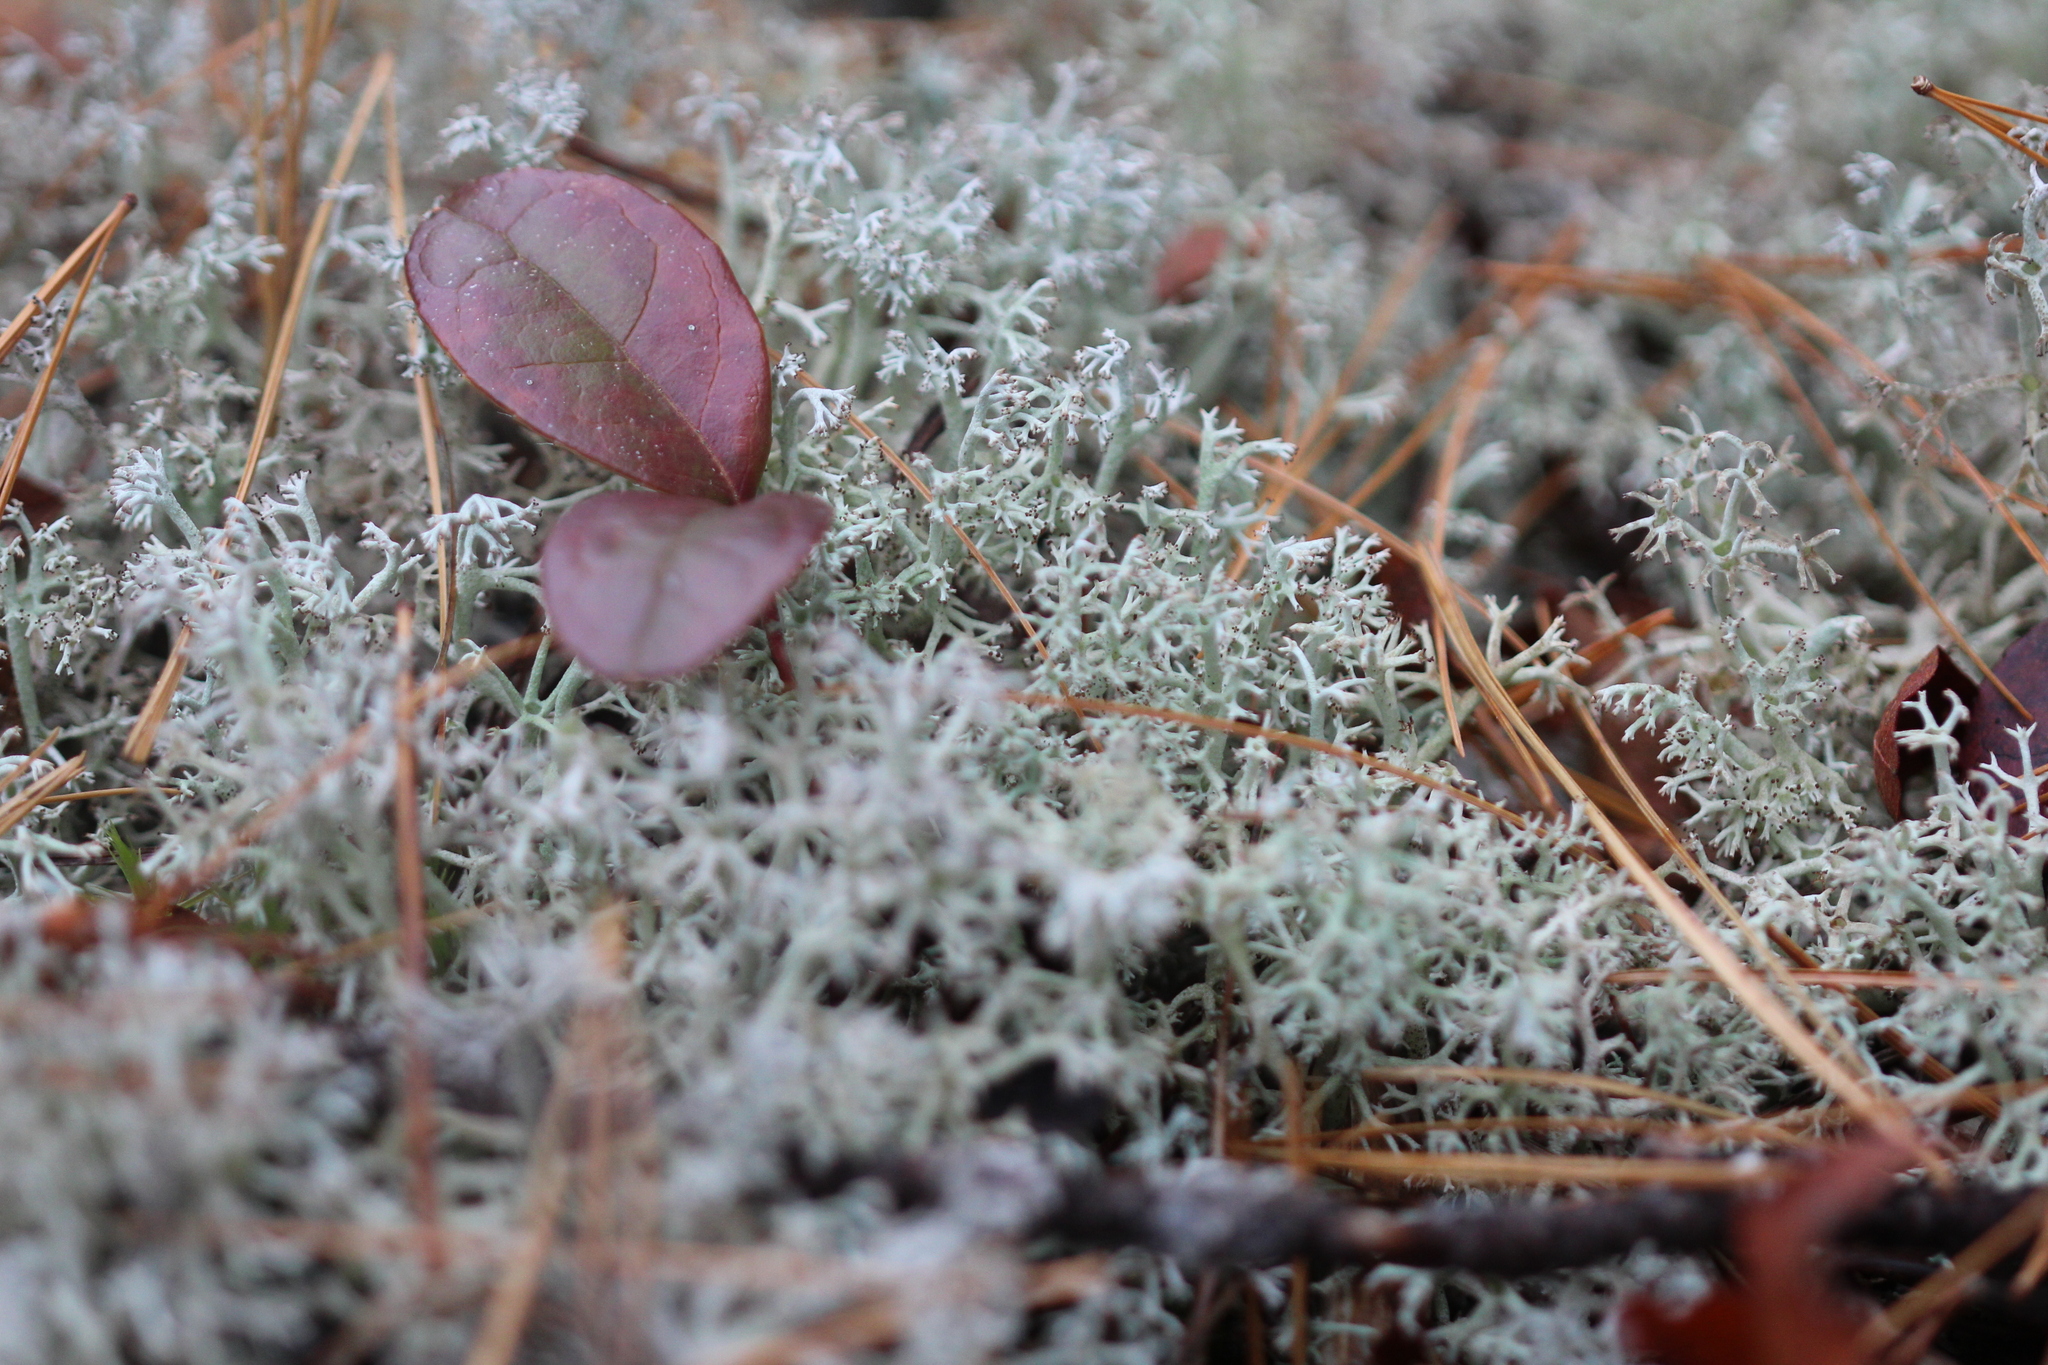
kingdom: Fungi
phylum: Ascomycota
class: Lecanoromycetes
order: Lecanorales
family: Cladoniaceae
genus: Cladonia
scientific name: Cladonia rangiferina
